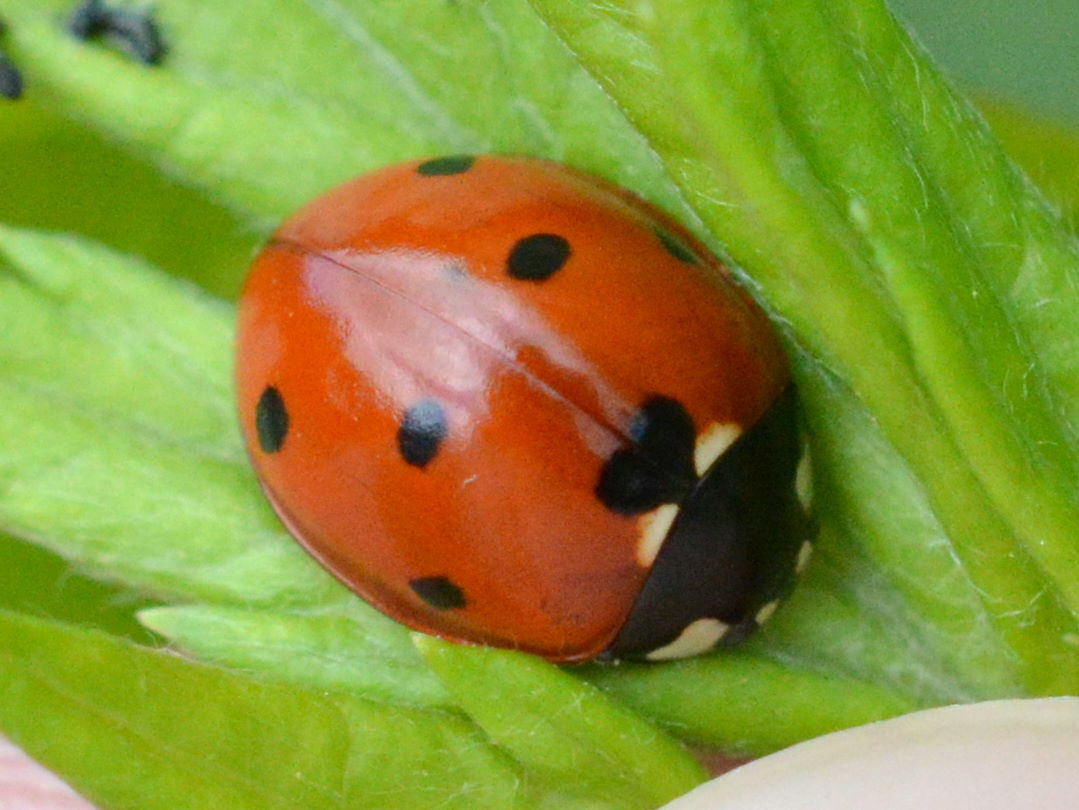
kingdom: Animalia
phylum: Arthropoda
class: Insecta
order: Coleoptera
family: Coccinellidae
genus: Coccinella
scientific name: Coccinella septempunctata
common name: Sevenspotted lady beetle
